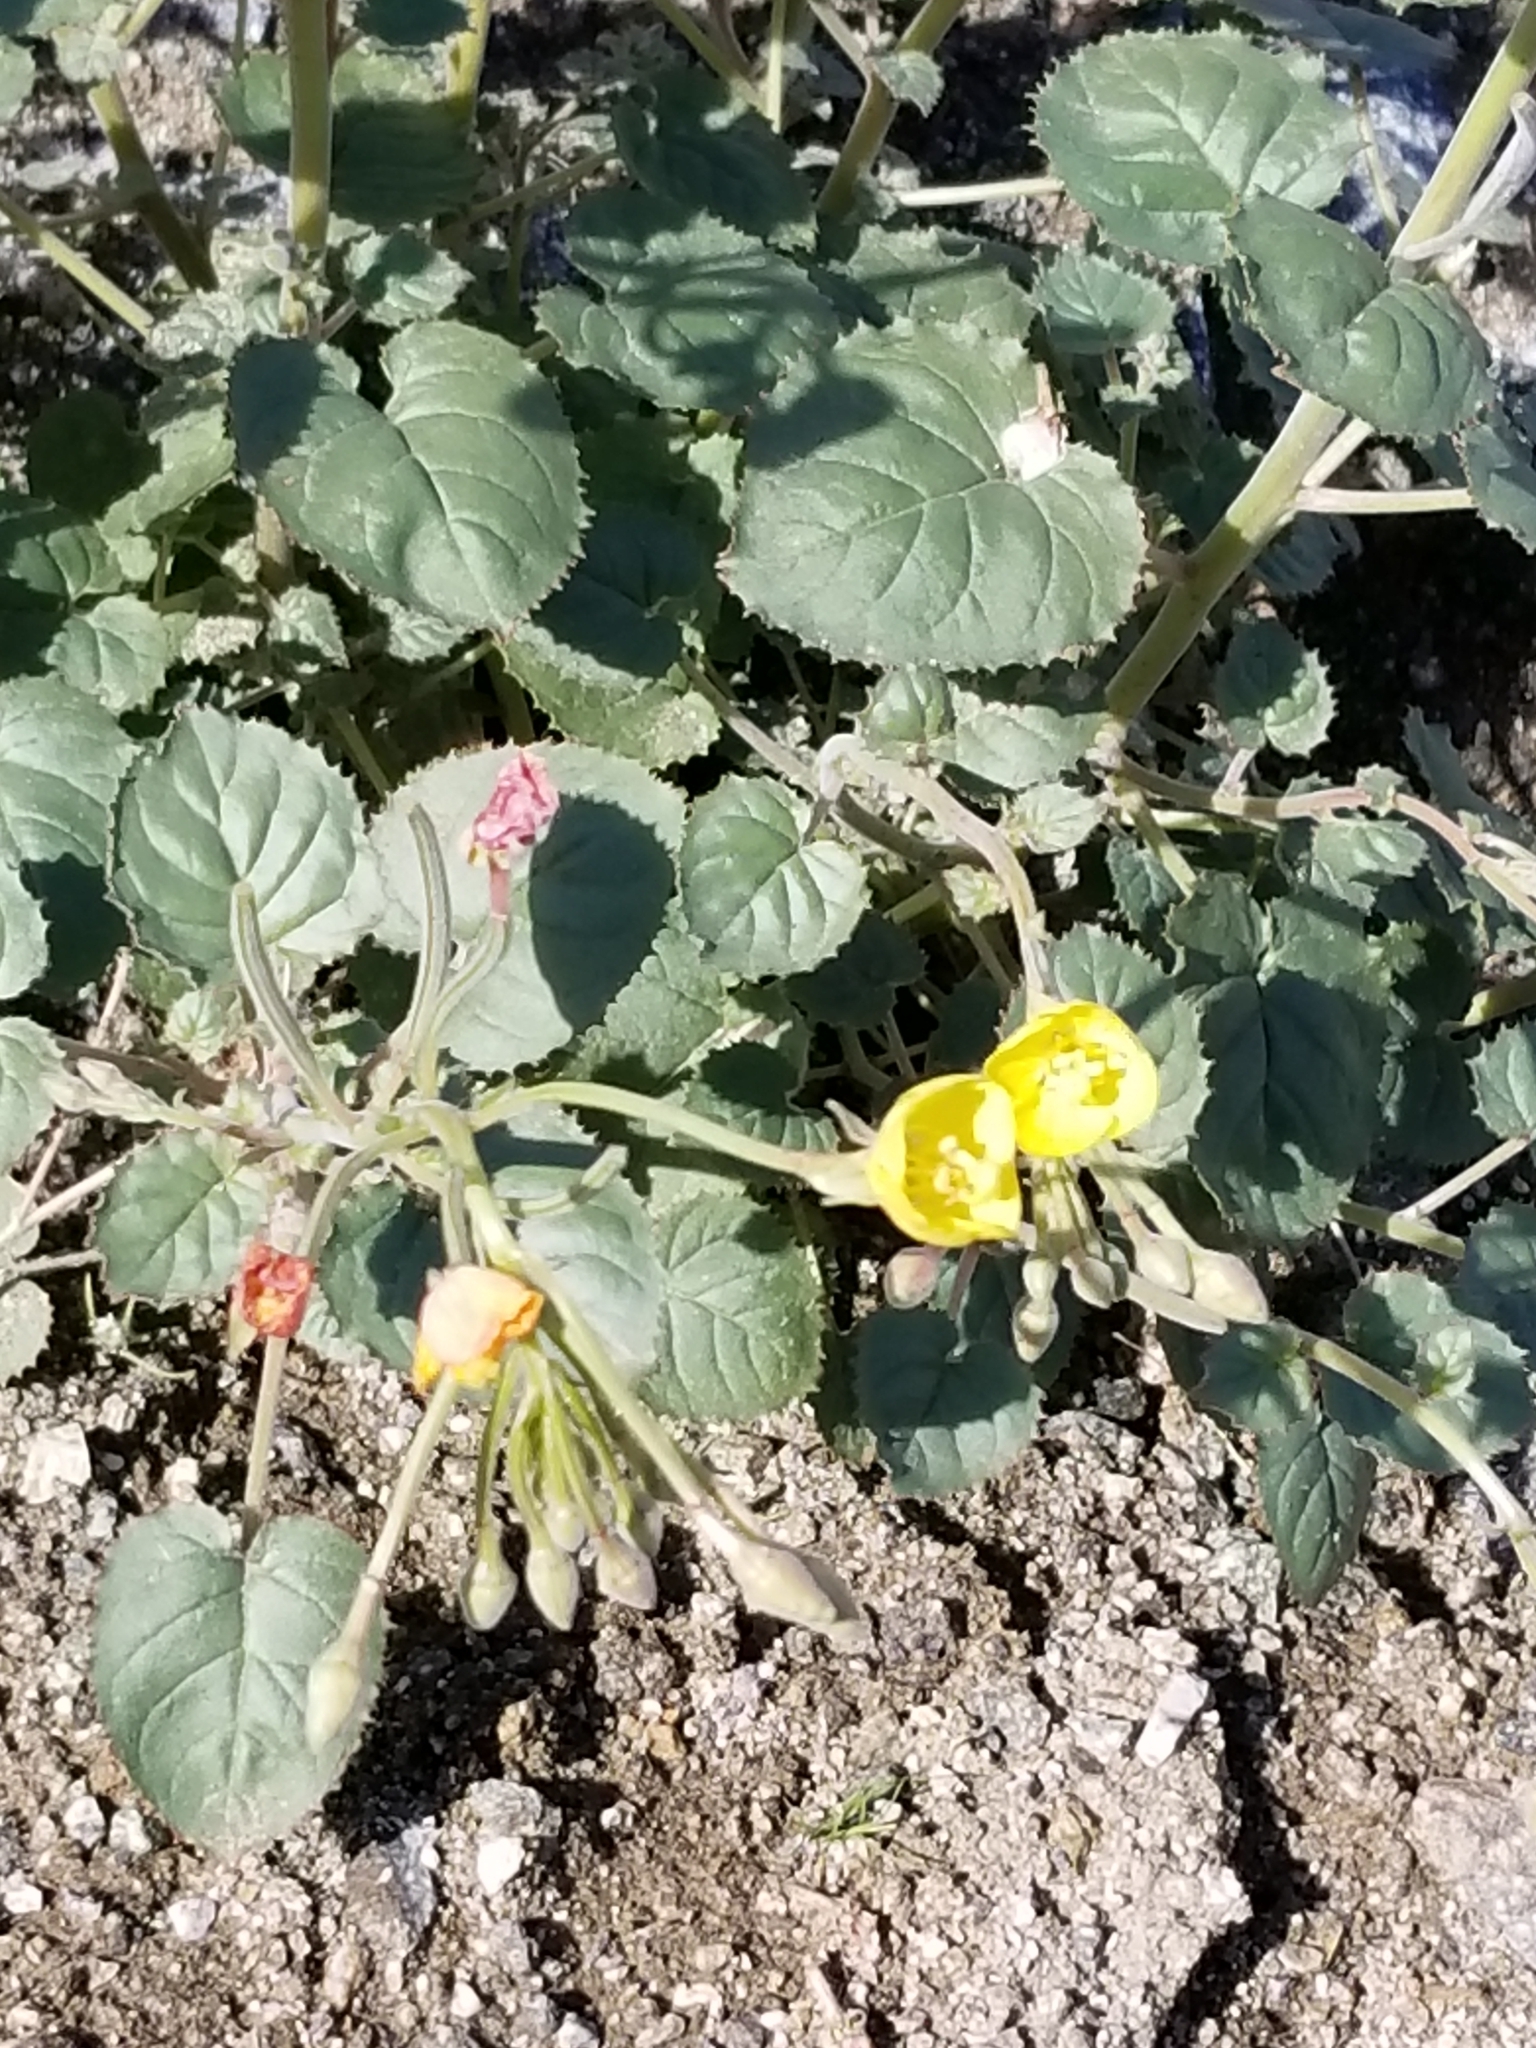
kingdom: Plantae
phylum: Tracheophyta
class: Magnoliopsida
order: Myrtales
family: Onagraceae
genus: Chylismia
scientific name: Chylismia cardiophylla
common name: Heartleaf suncup
